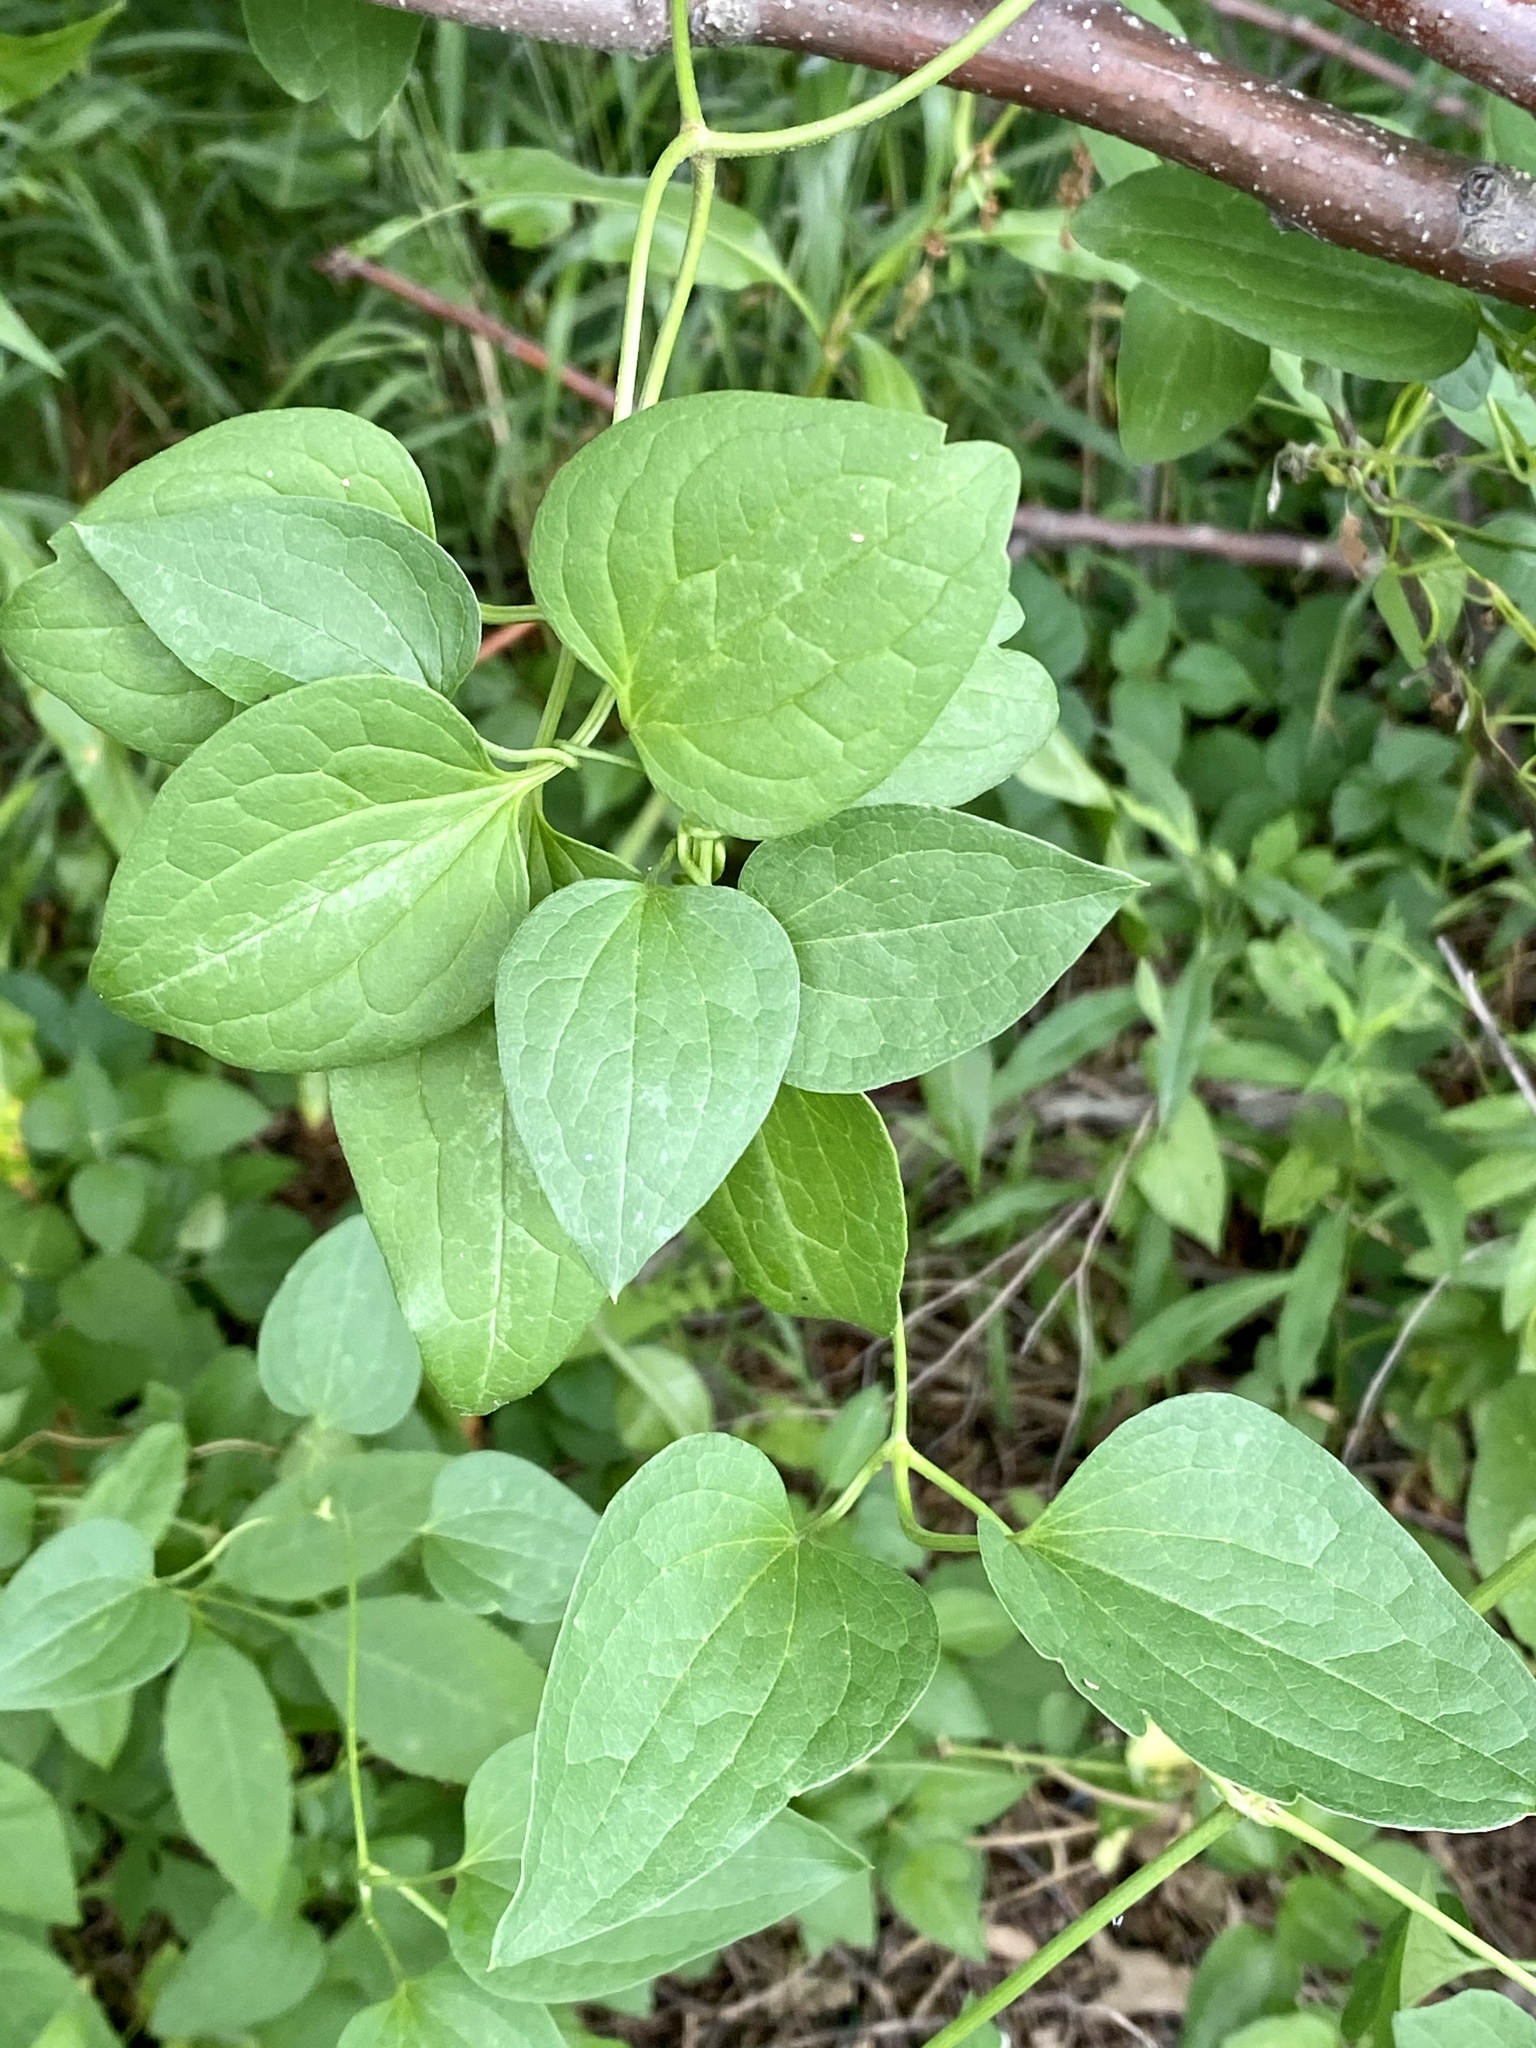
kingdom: Plantae
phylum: Tracheophyta
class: Magnoliopsida
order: Ranunculales
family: Ranunculaceae
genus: Clematis
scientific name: Clematis terniflora
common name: Sweet autumn clematis
